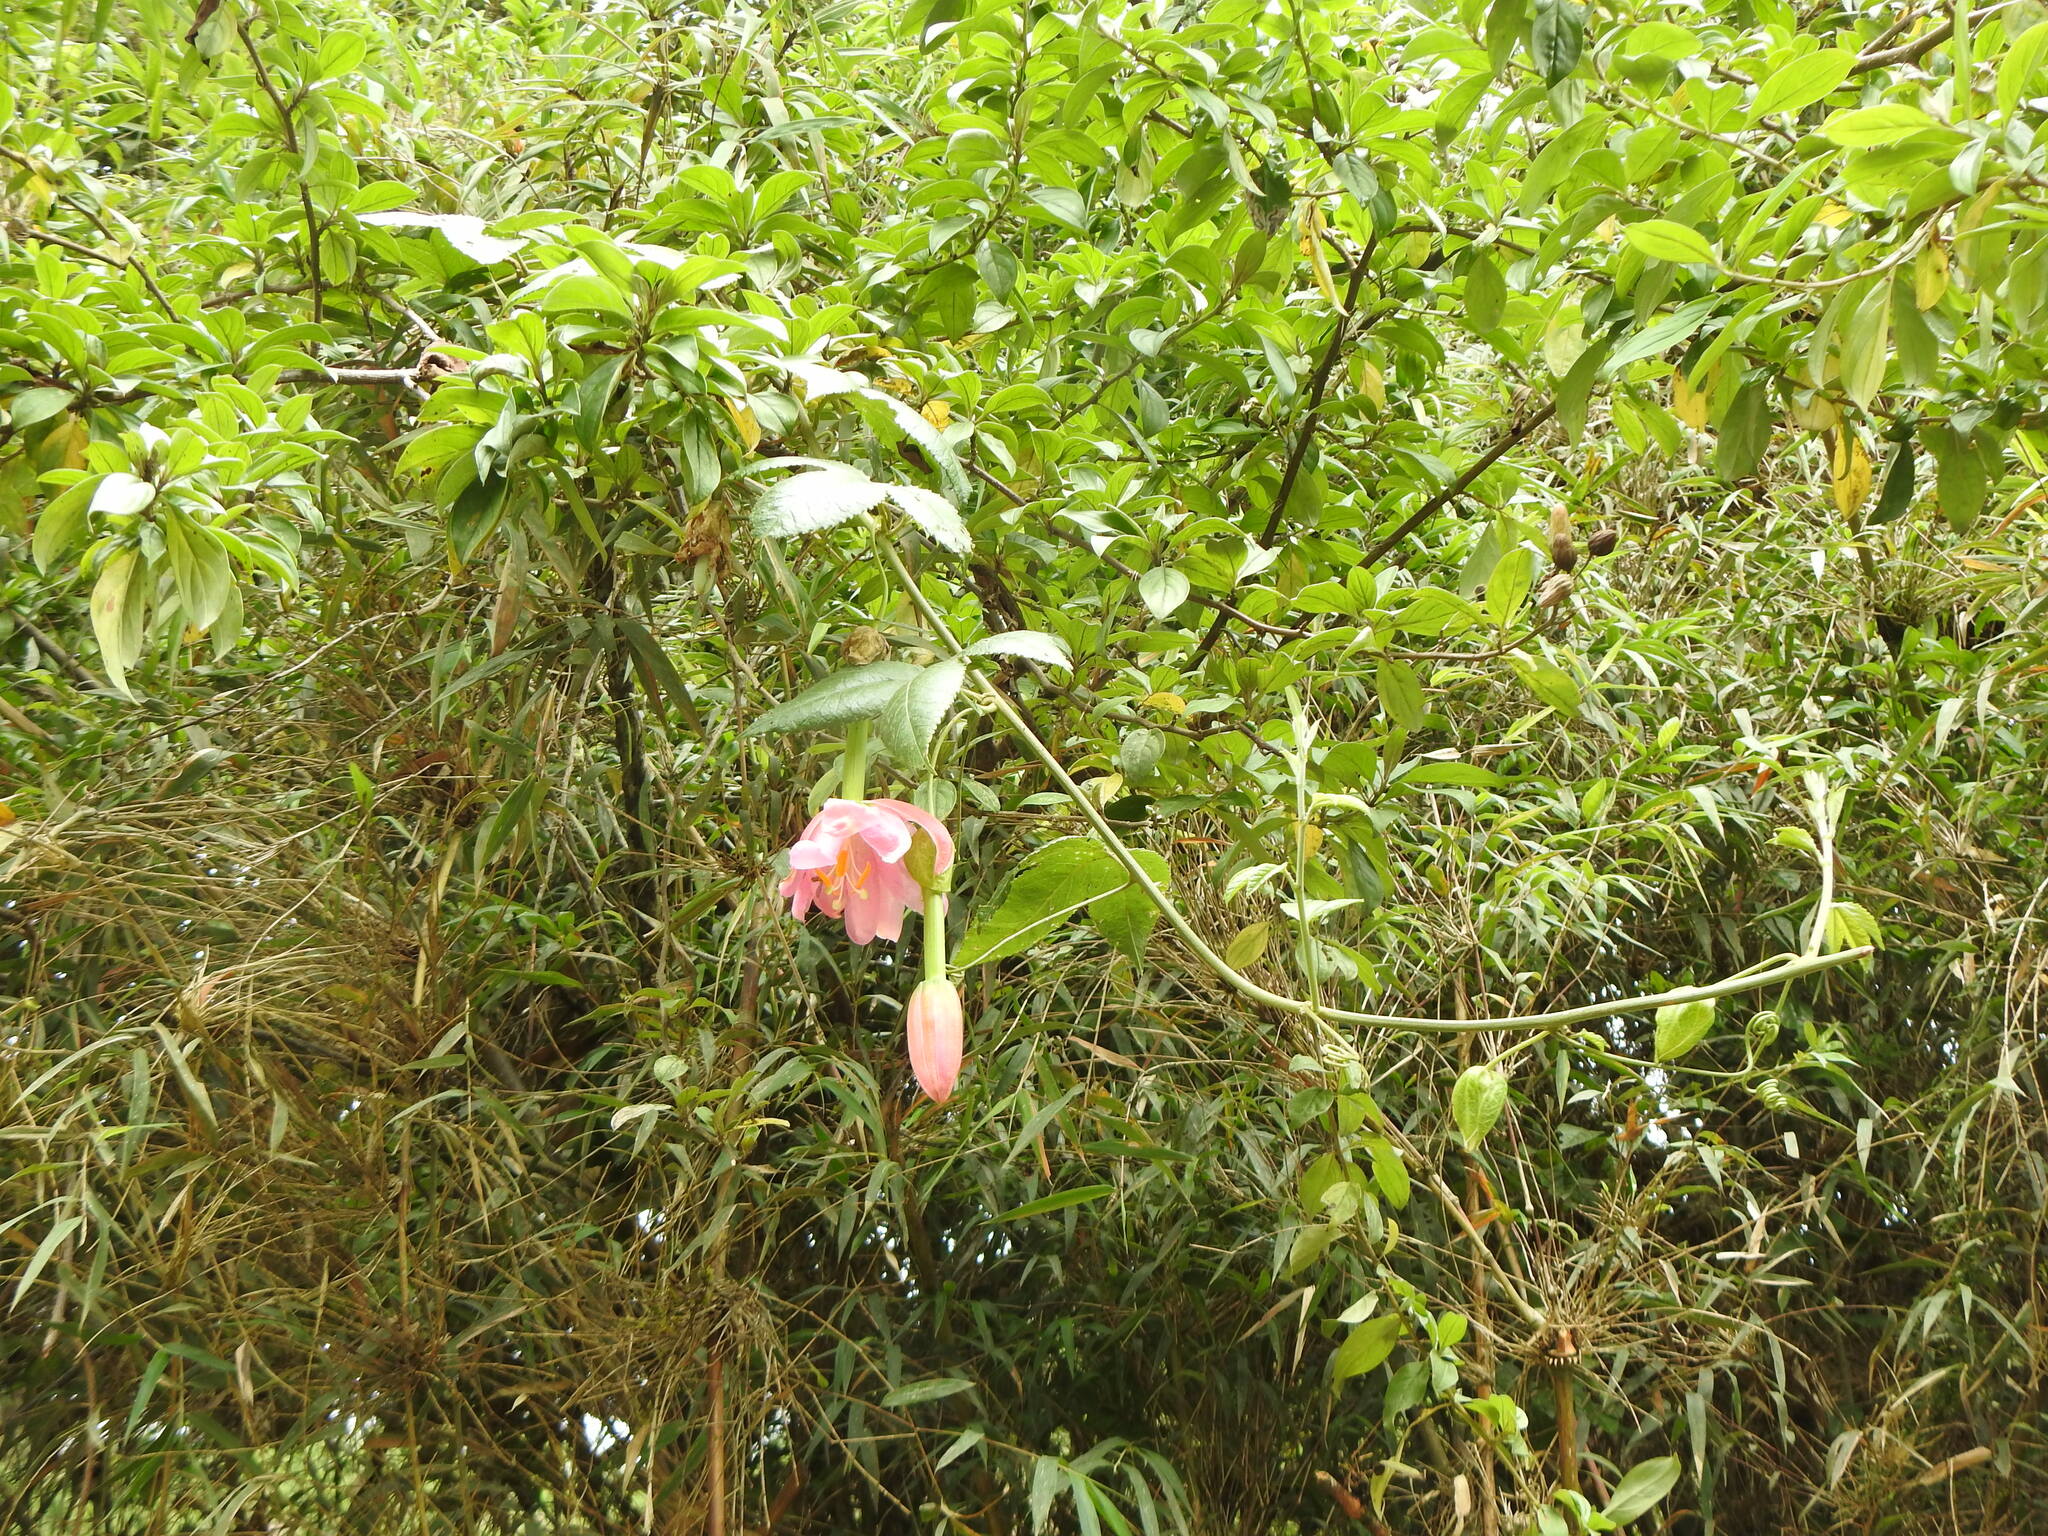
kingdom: Plantae
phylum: Tracheophyta
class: Magnoliopsida
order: Malpighiales
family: Passifloraceae
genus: Passiflora
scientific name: Passiflora tarminiana
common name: Banana poka
